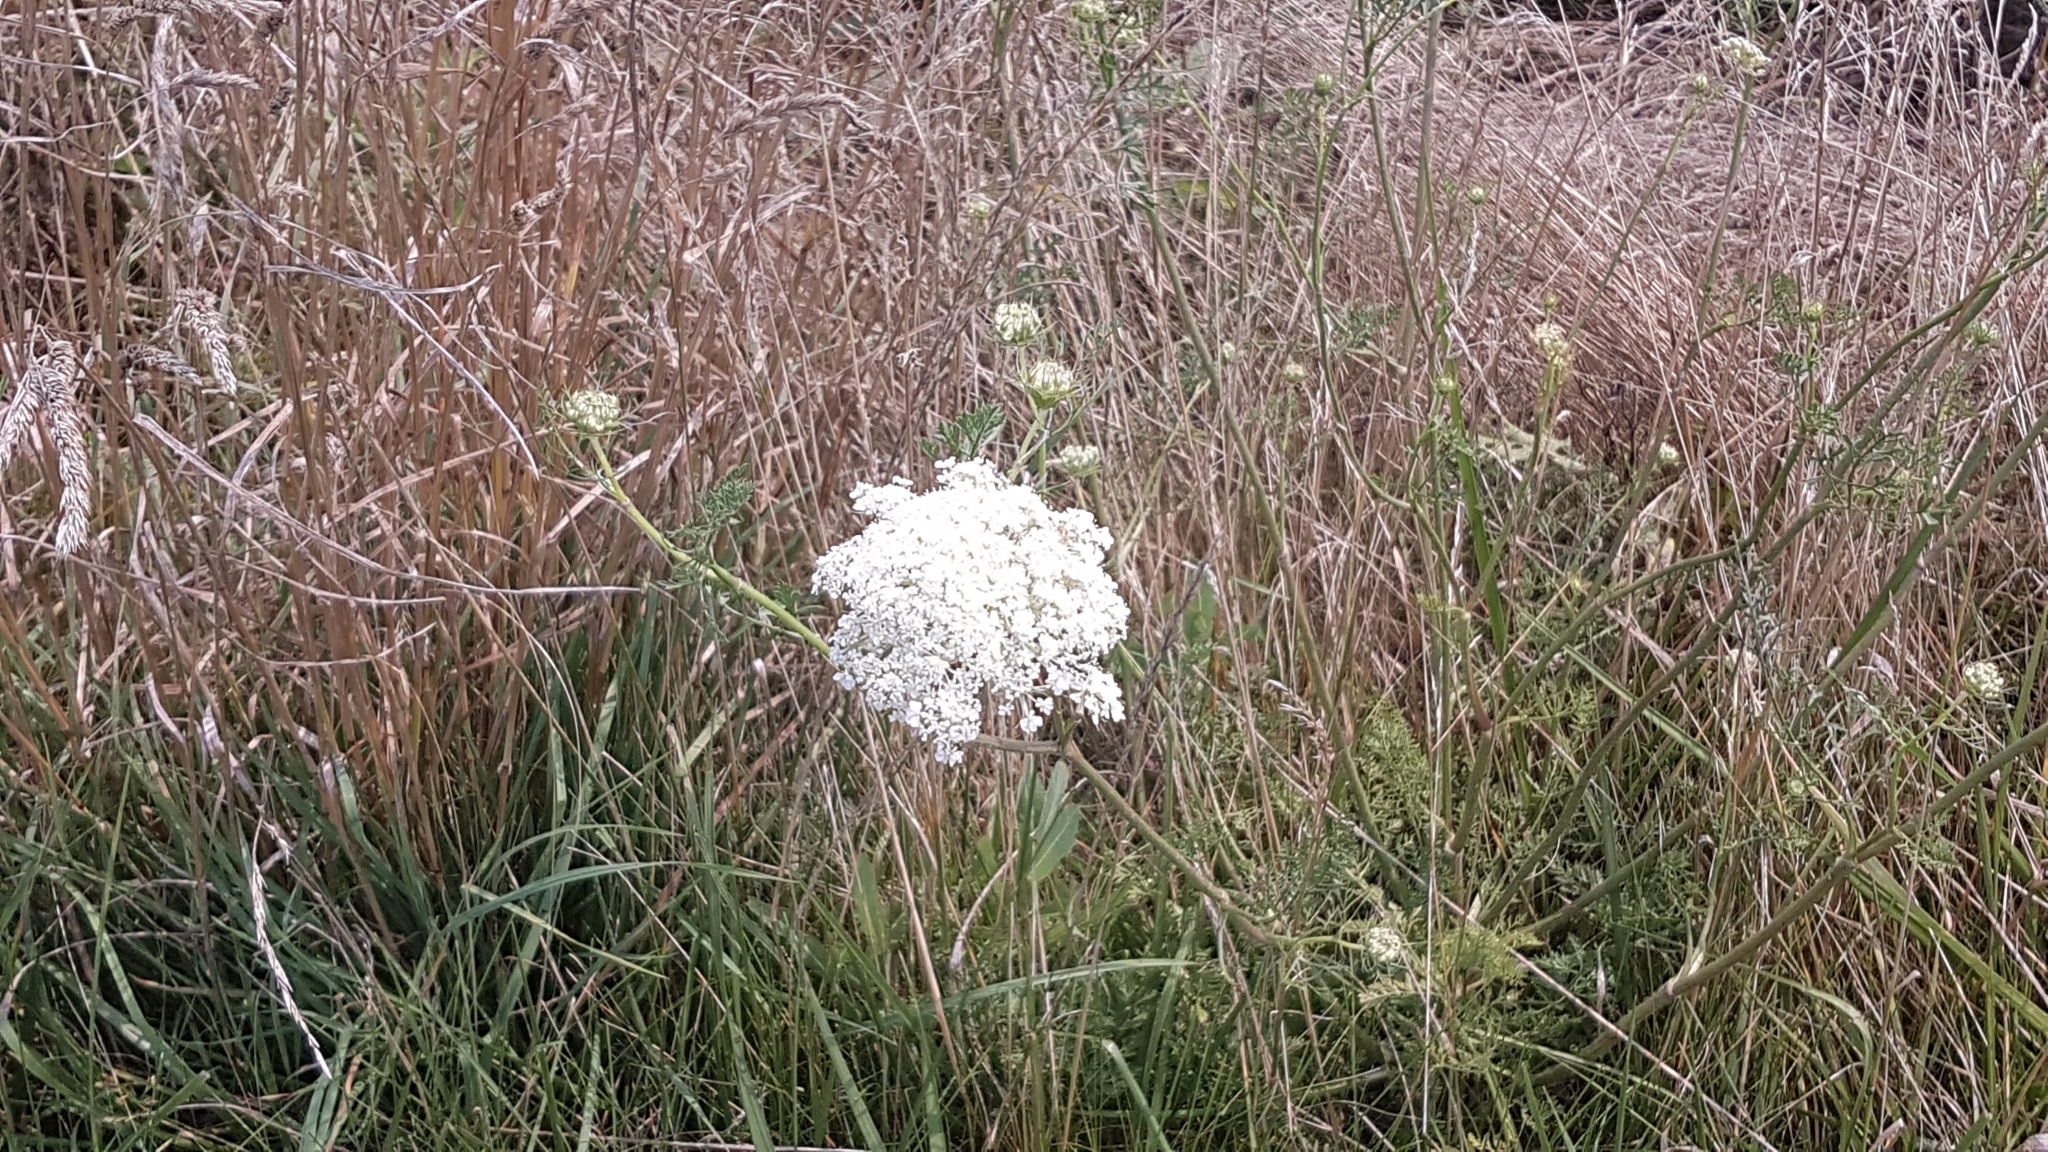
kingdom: Plantae
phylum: Tracheophyta
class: Magnoliopsida
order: Apiales
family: Apiaceae
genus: Daucus
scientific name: Daucus carota
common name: Wild carrot
